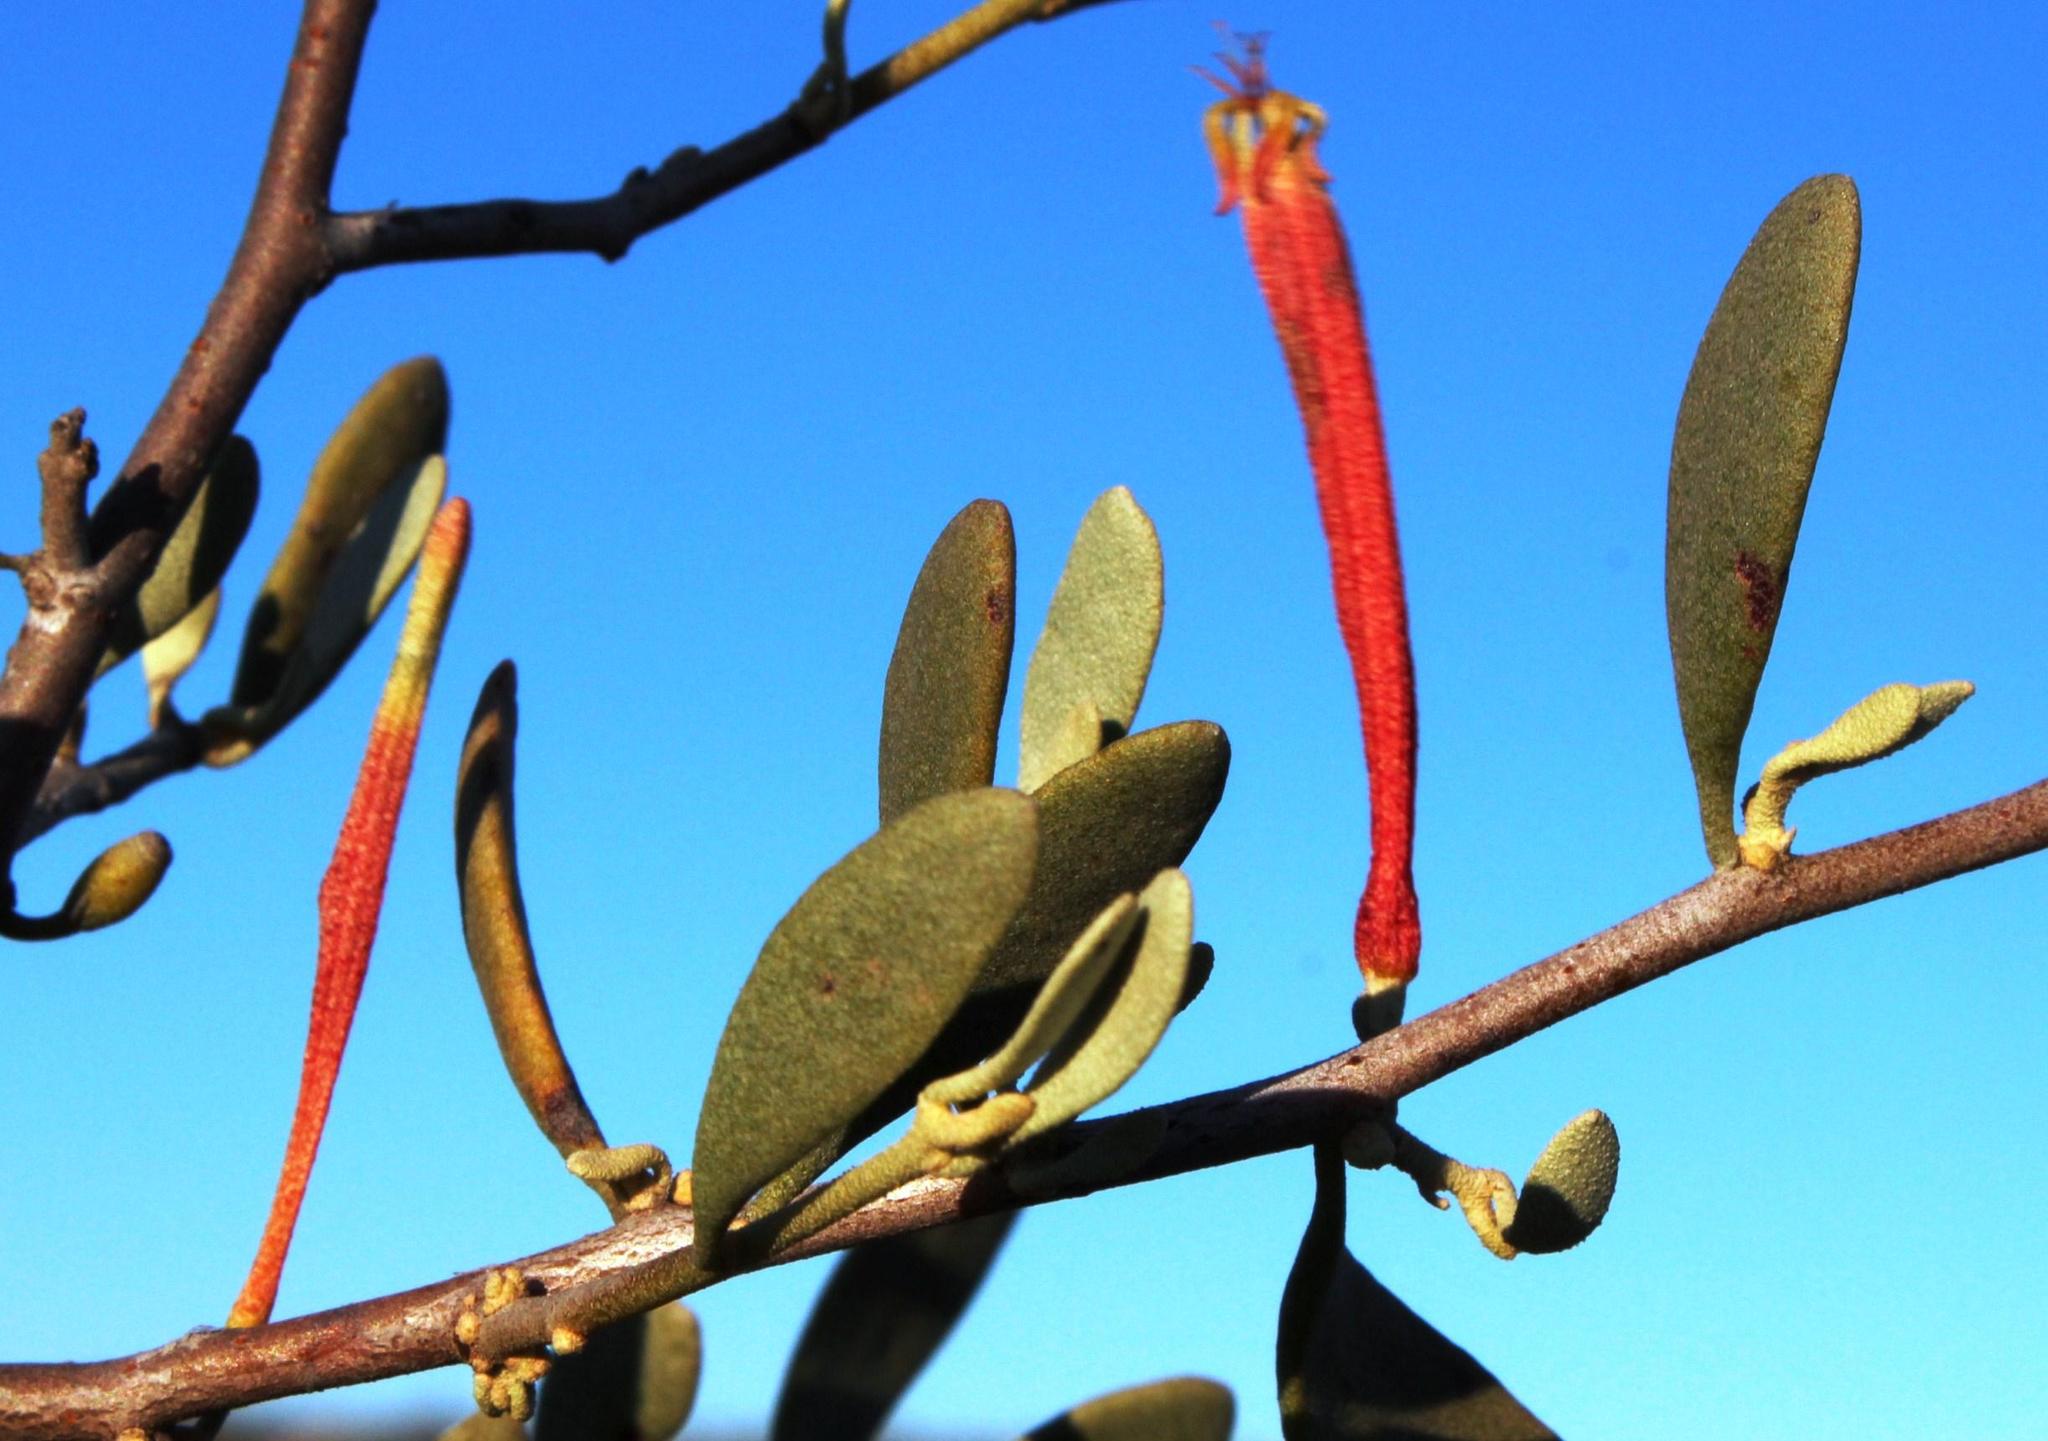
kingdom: Plantae
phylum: Tracheophyta
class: Magnoliopsida
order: Santalales
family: Loranthaceae
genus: Septulina
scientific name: Septulina glauca
